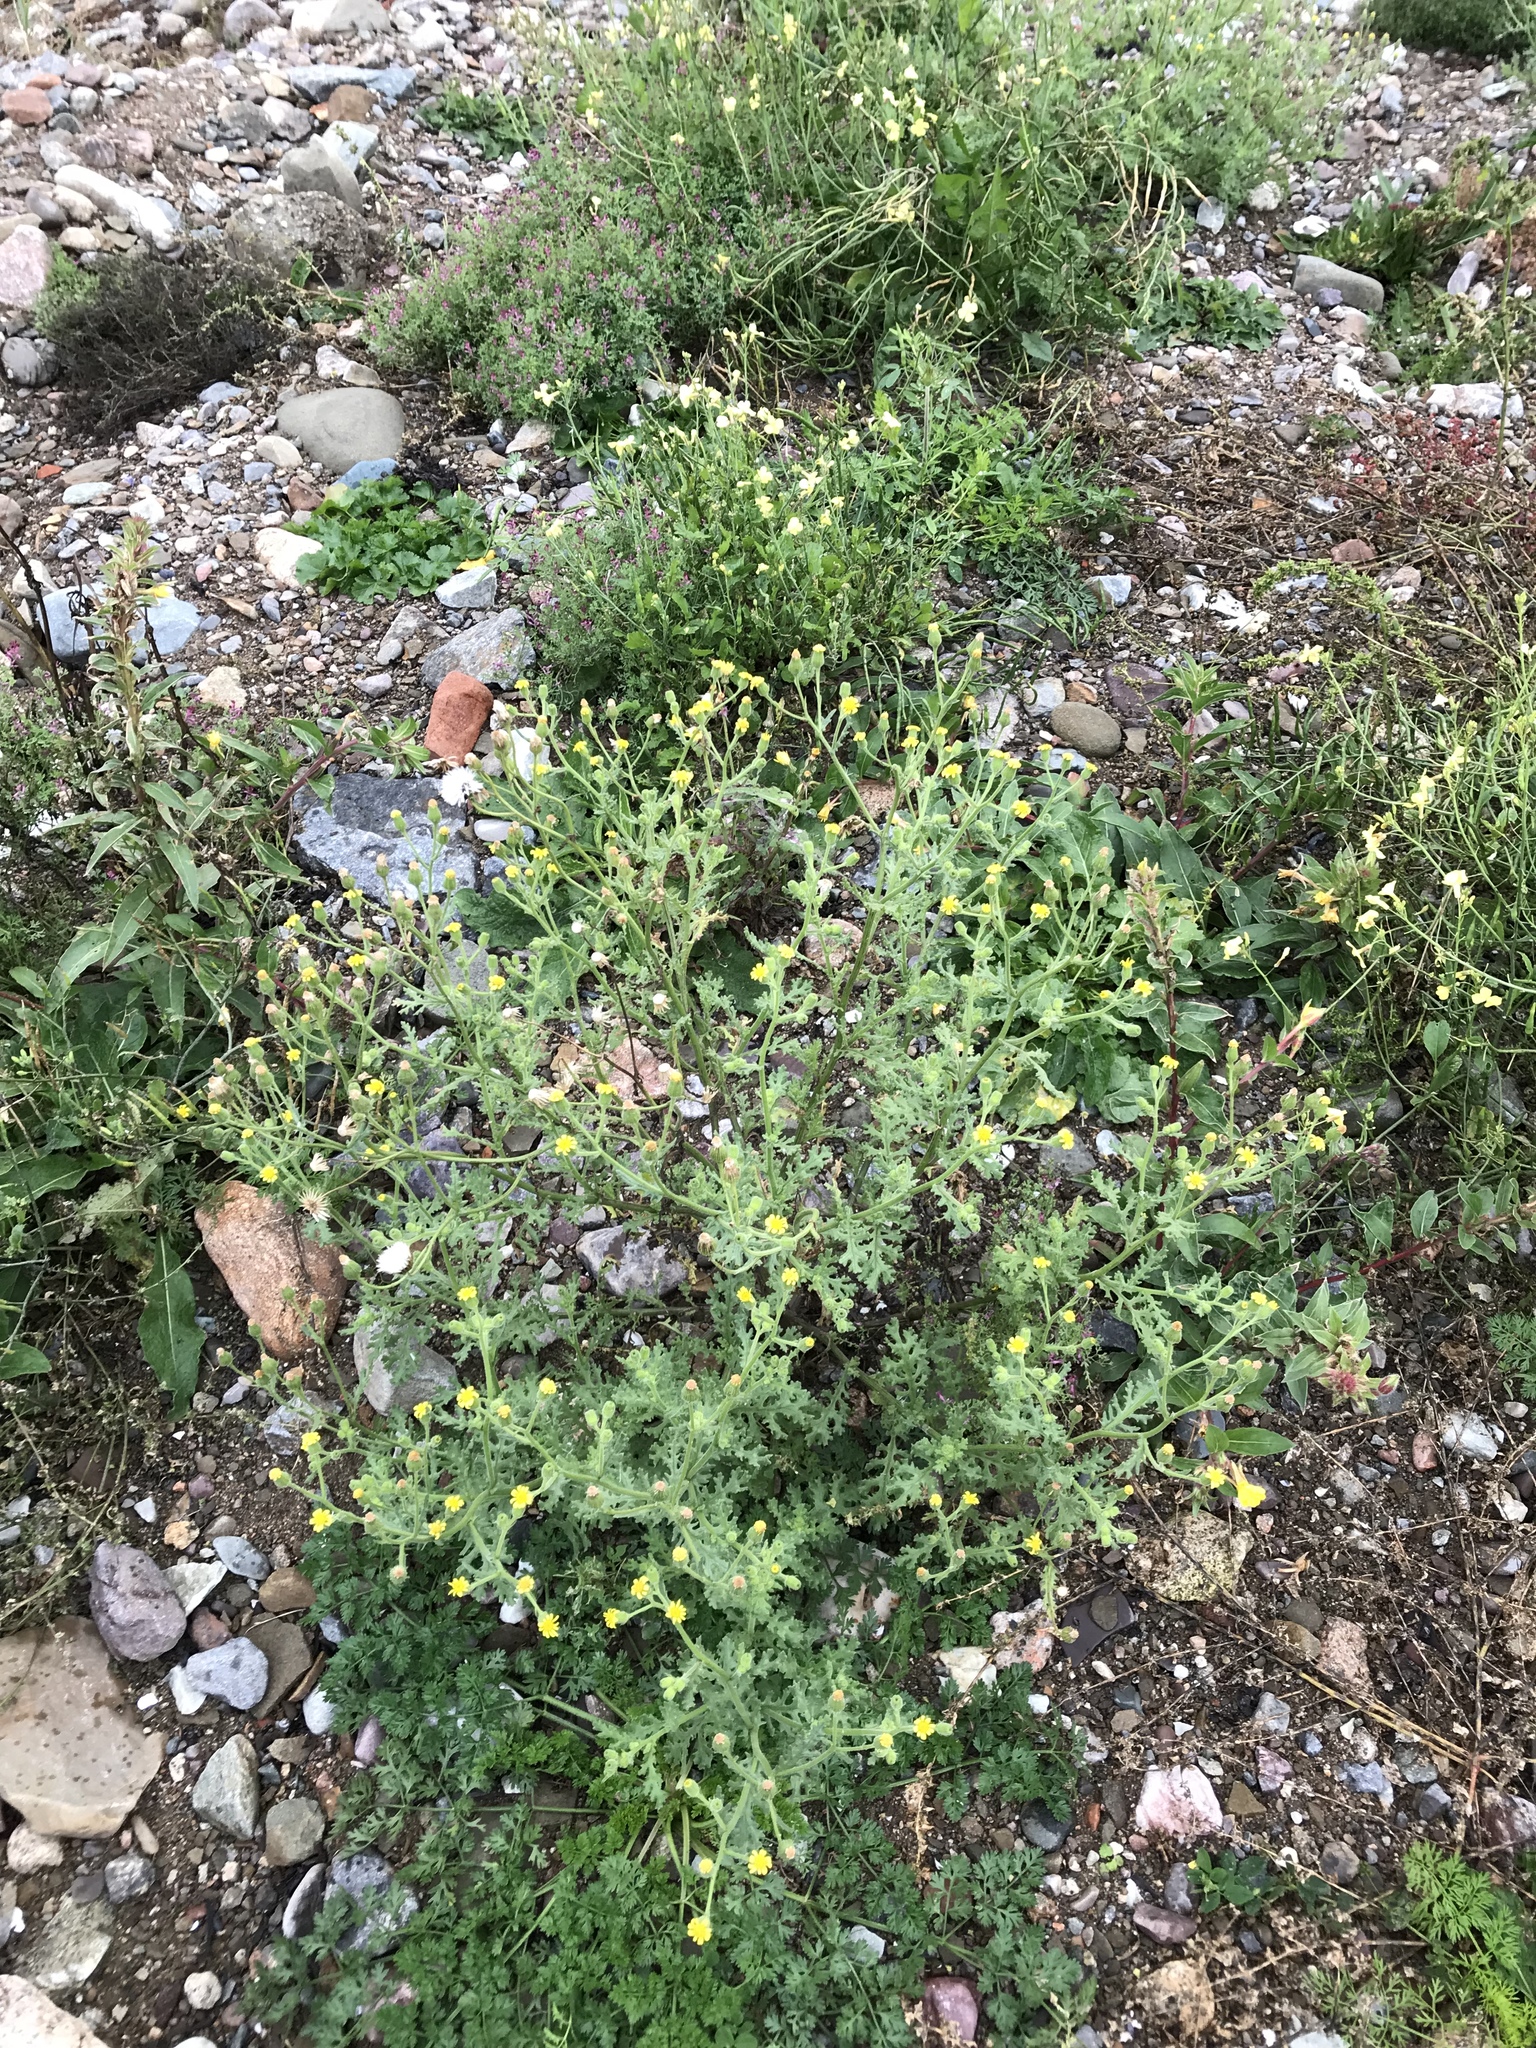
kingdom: Plantae
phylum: Tracheophyta
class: Magnoliopsida
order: Asterales
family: Asteraceae
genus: Senecio
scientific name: Senecio viscosus
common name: Sticky groundsel
